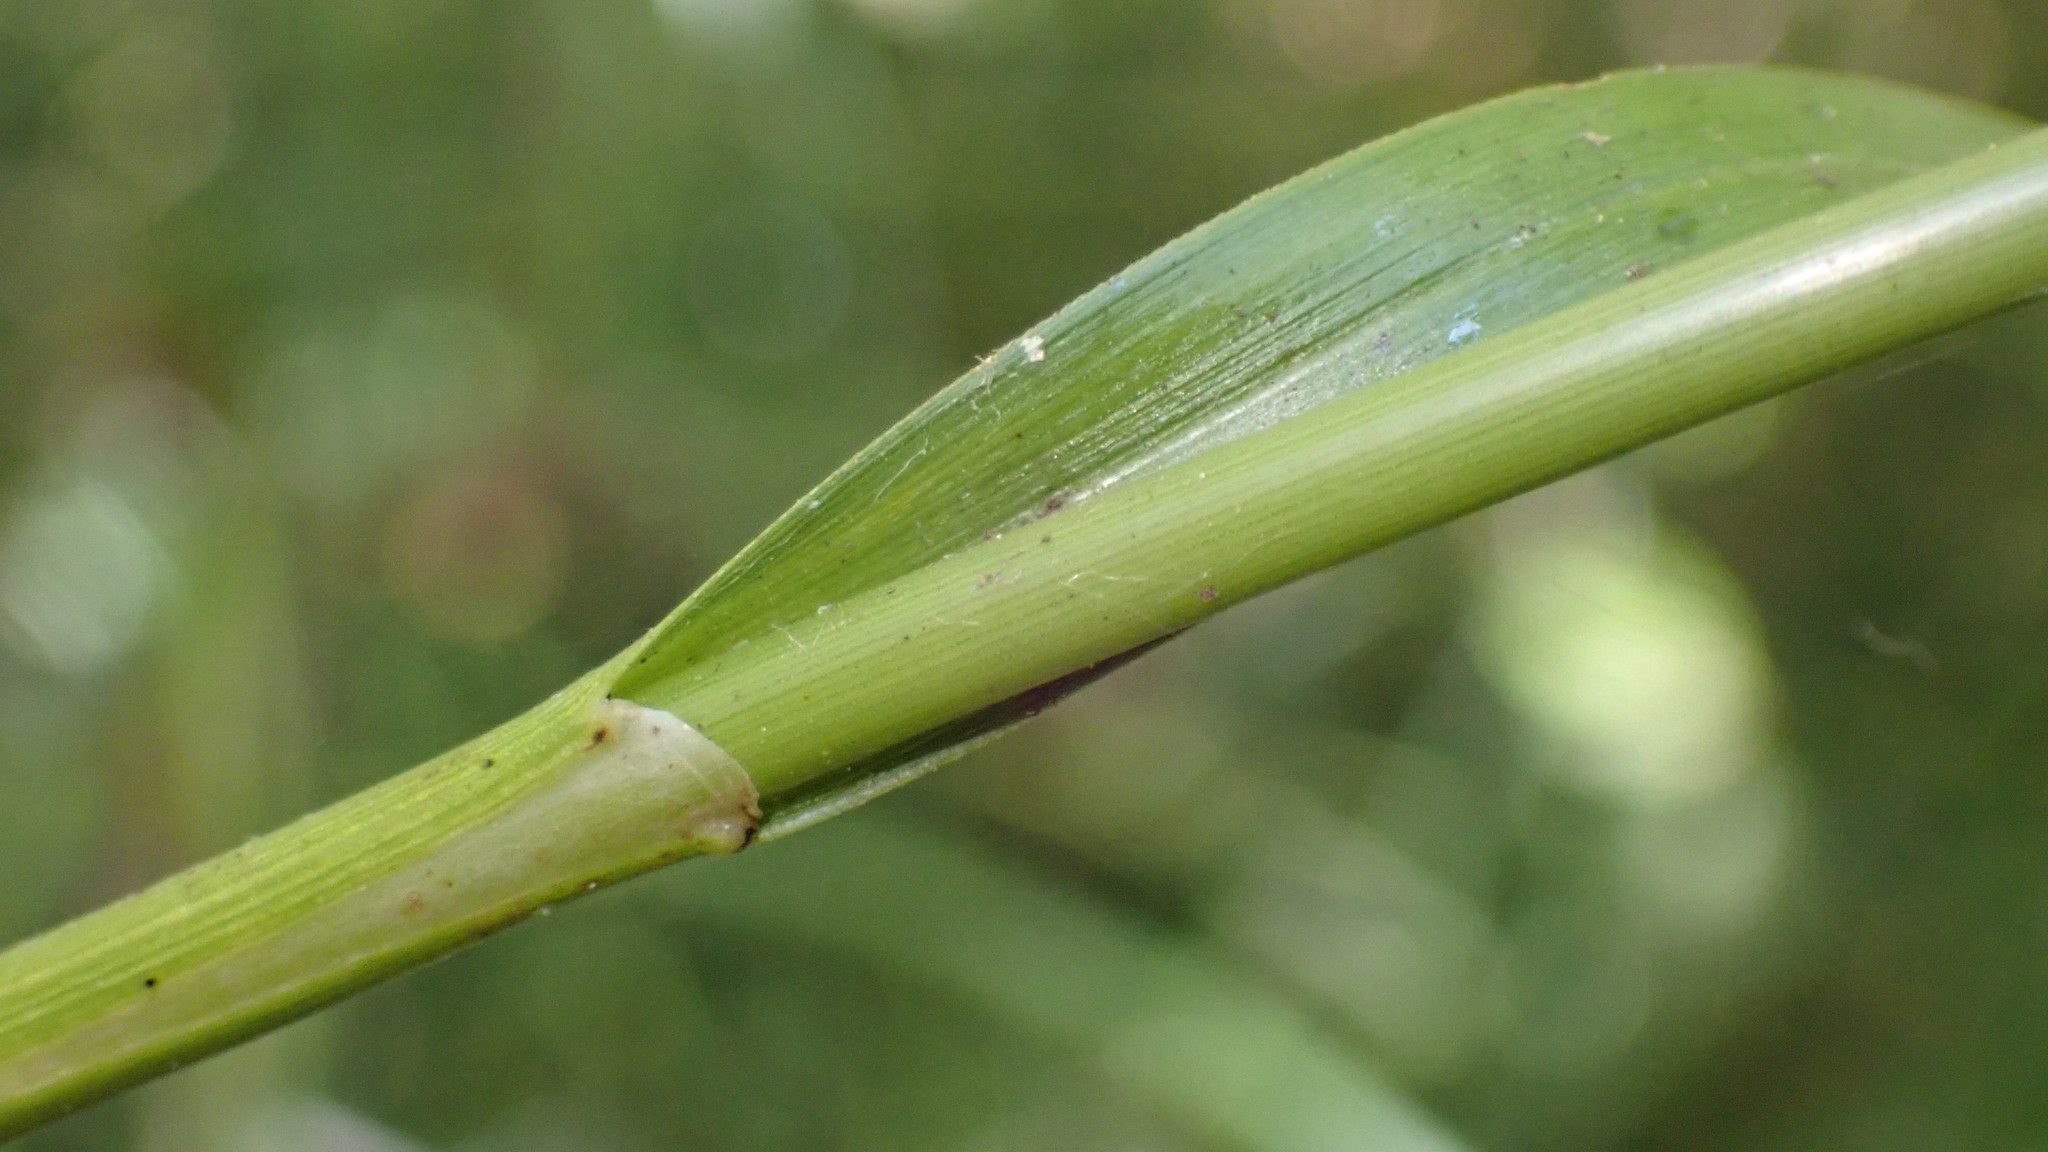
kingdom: Plantae
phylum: Tracheophyta
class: Liliopsida
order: Poales
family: Cyperaceae
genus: Scirpus
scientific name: Scirpus cyperinus
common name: Black-sheathed bulrush
